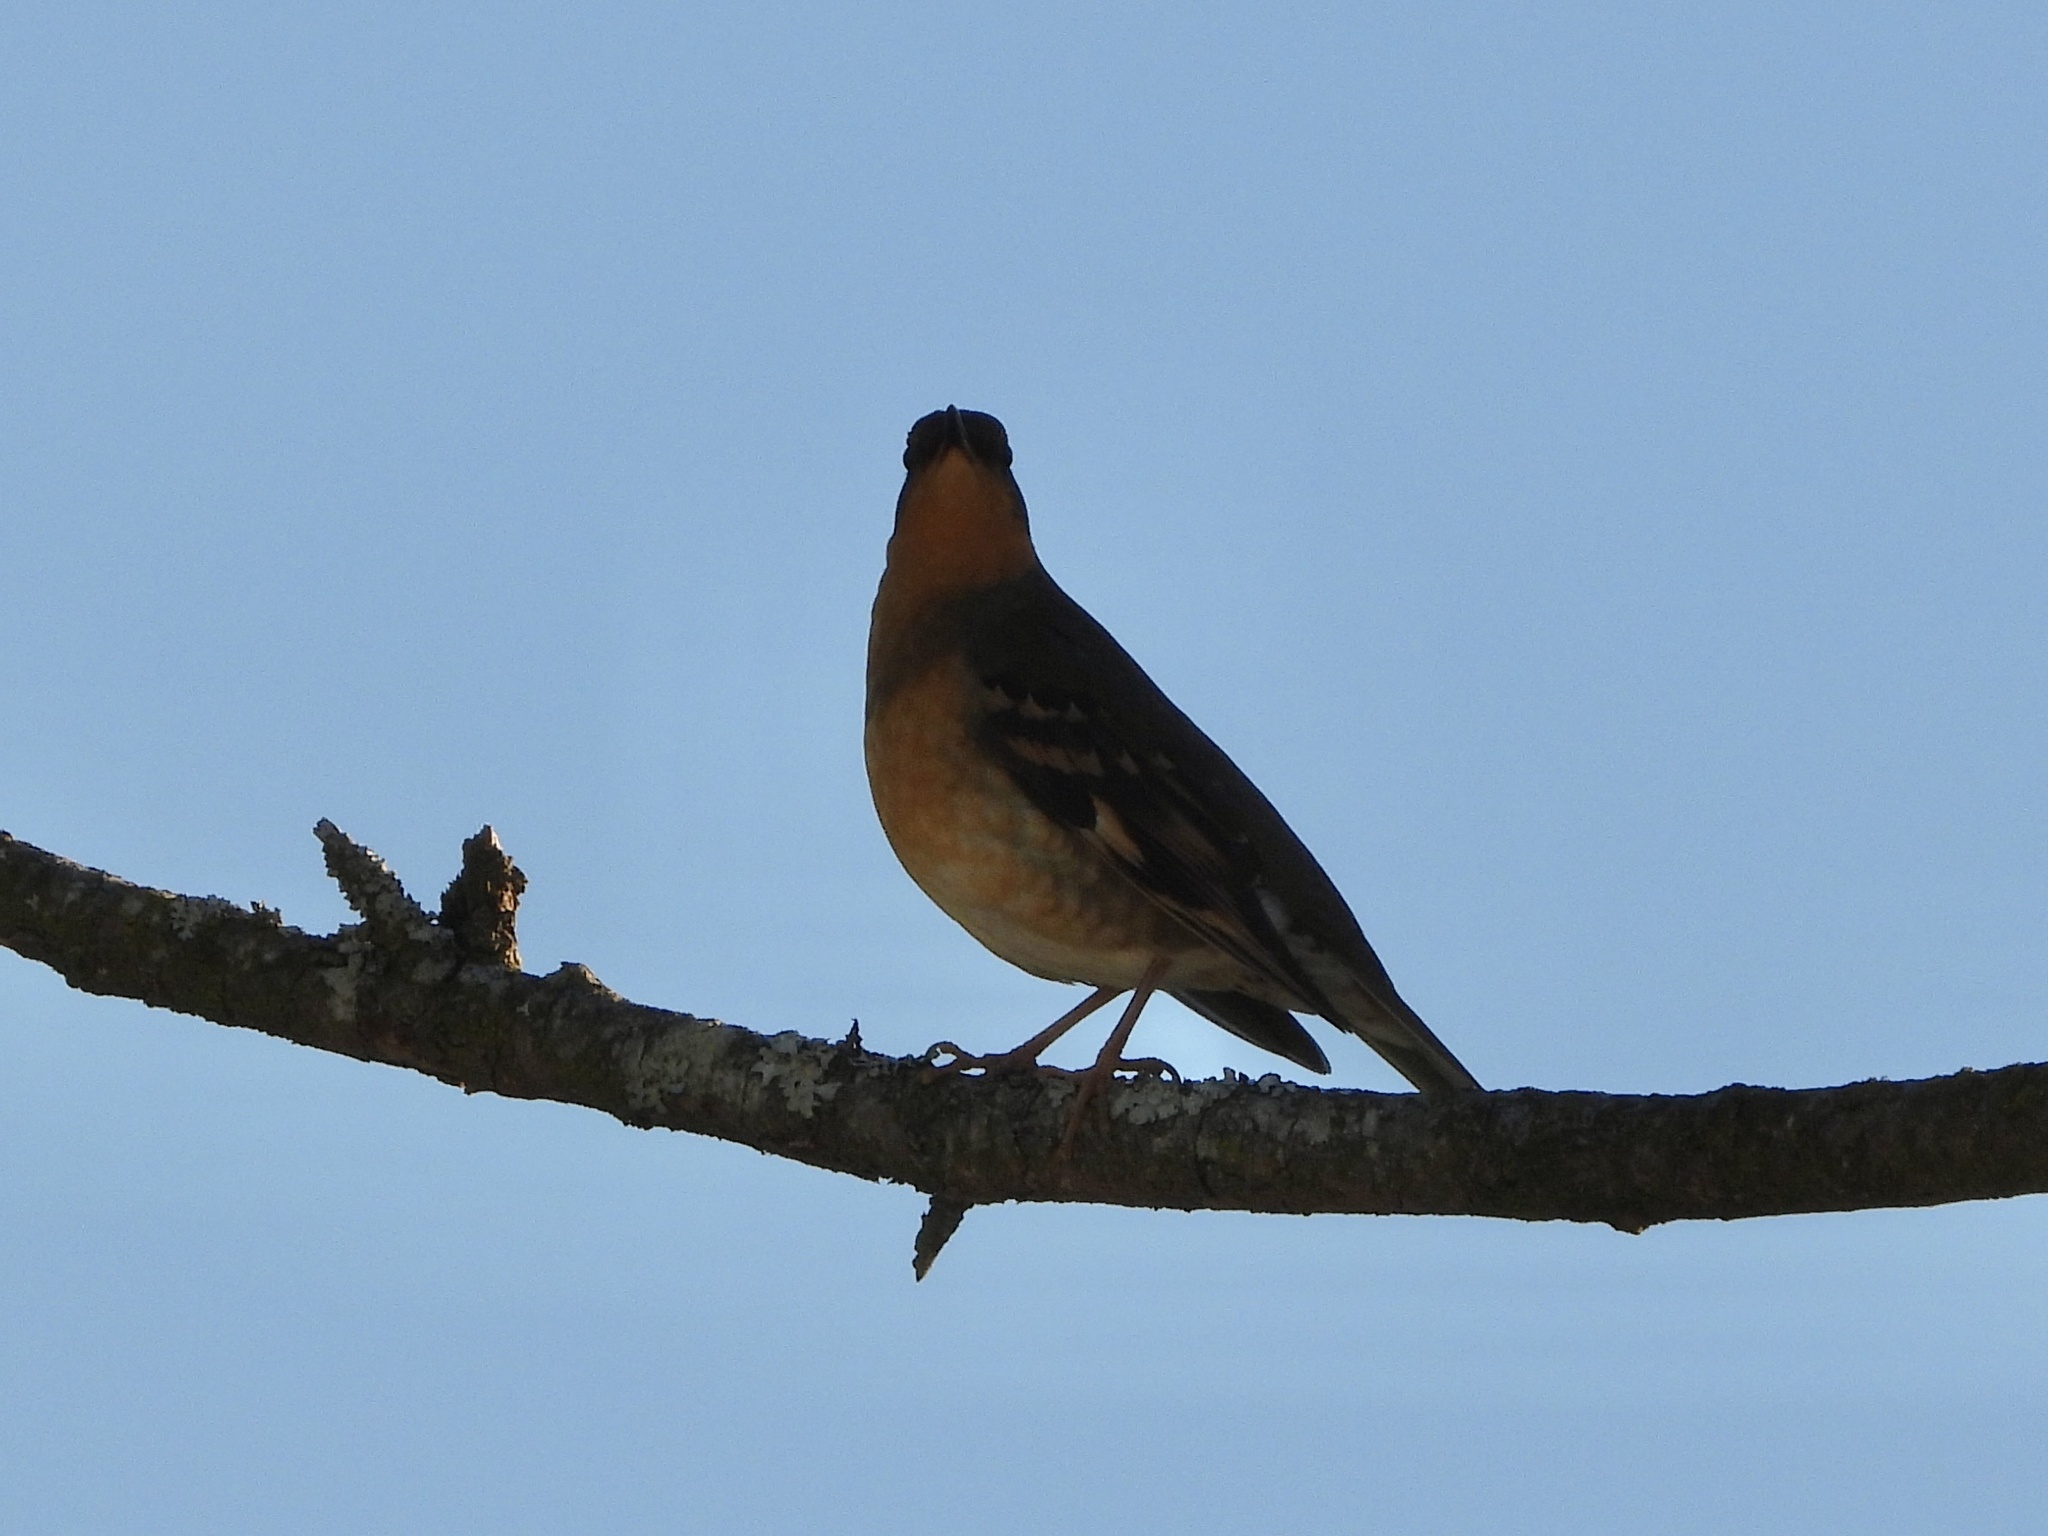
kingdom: Animalia
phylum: Chordata
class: Aves
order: Passeriformes
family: Turdidae
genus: Ixoreus
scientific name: Ixoreus naevius
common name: Varied thrush
